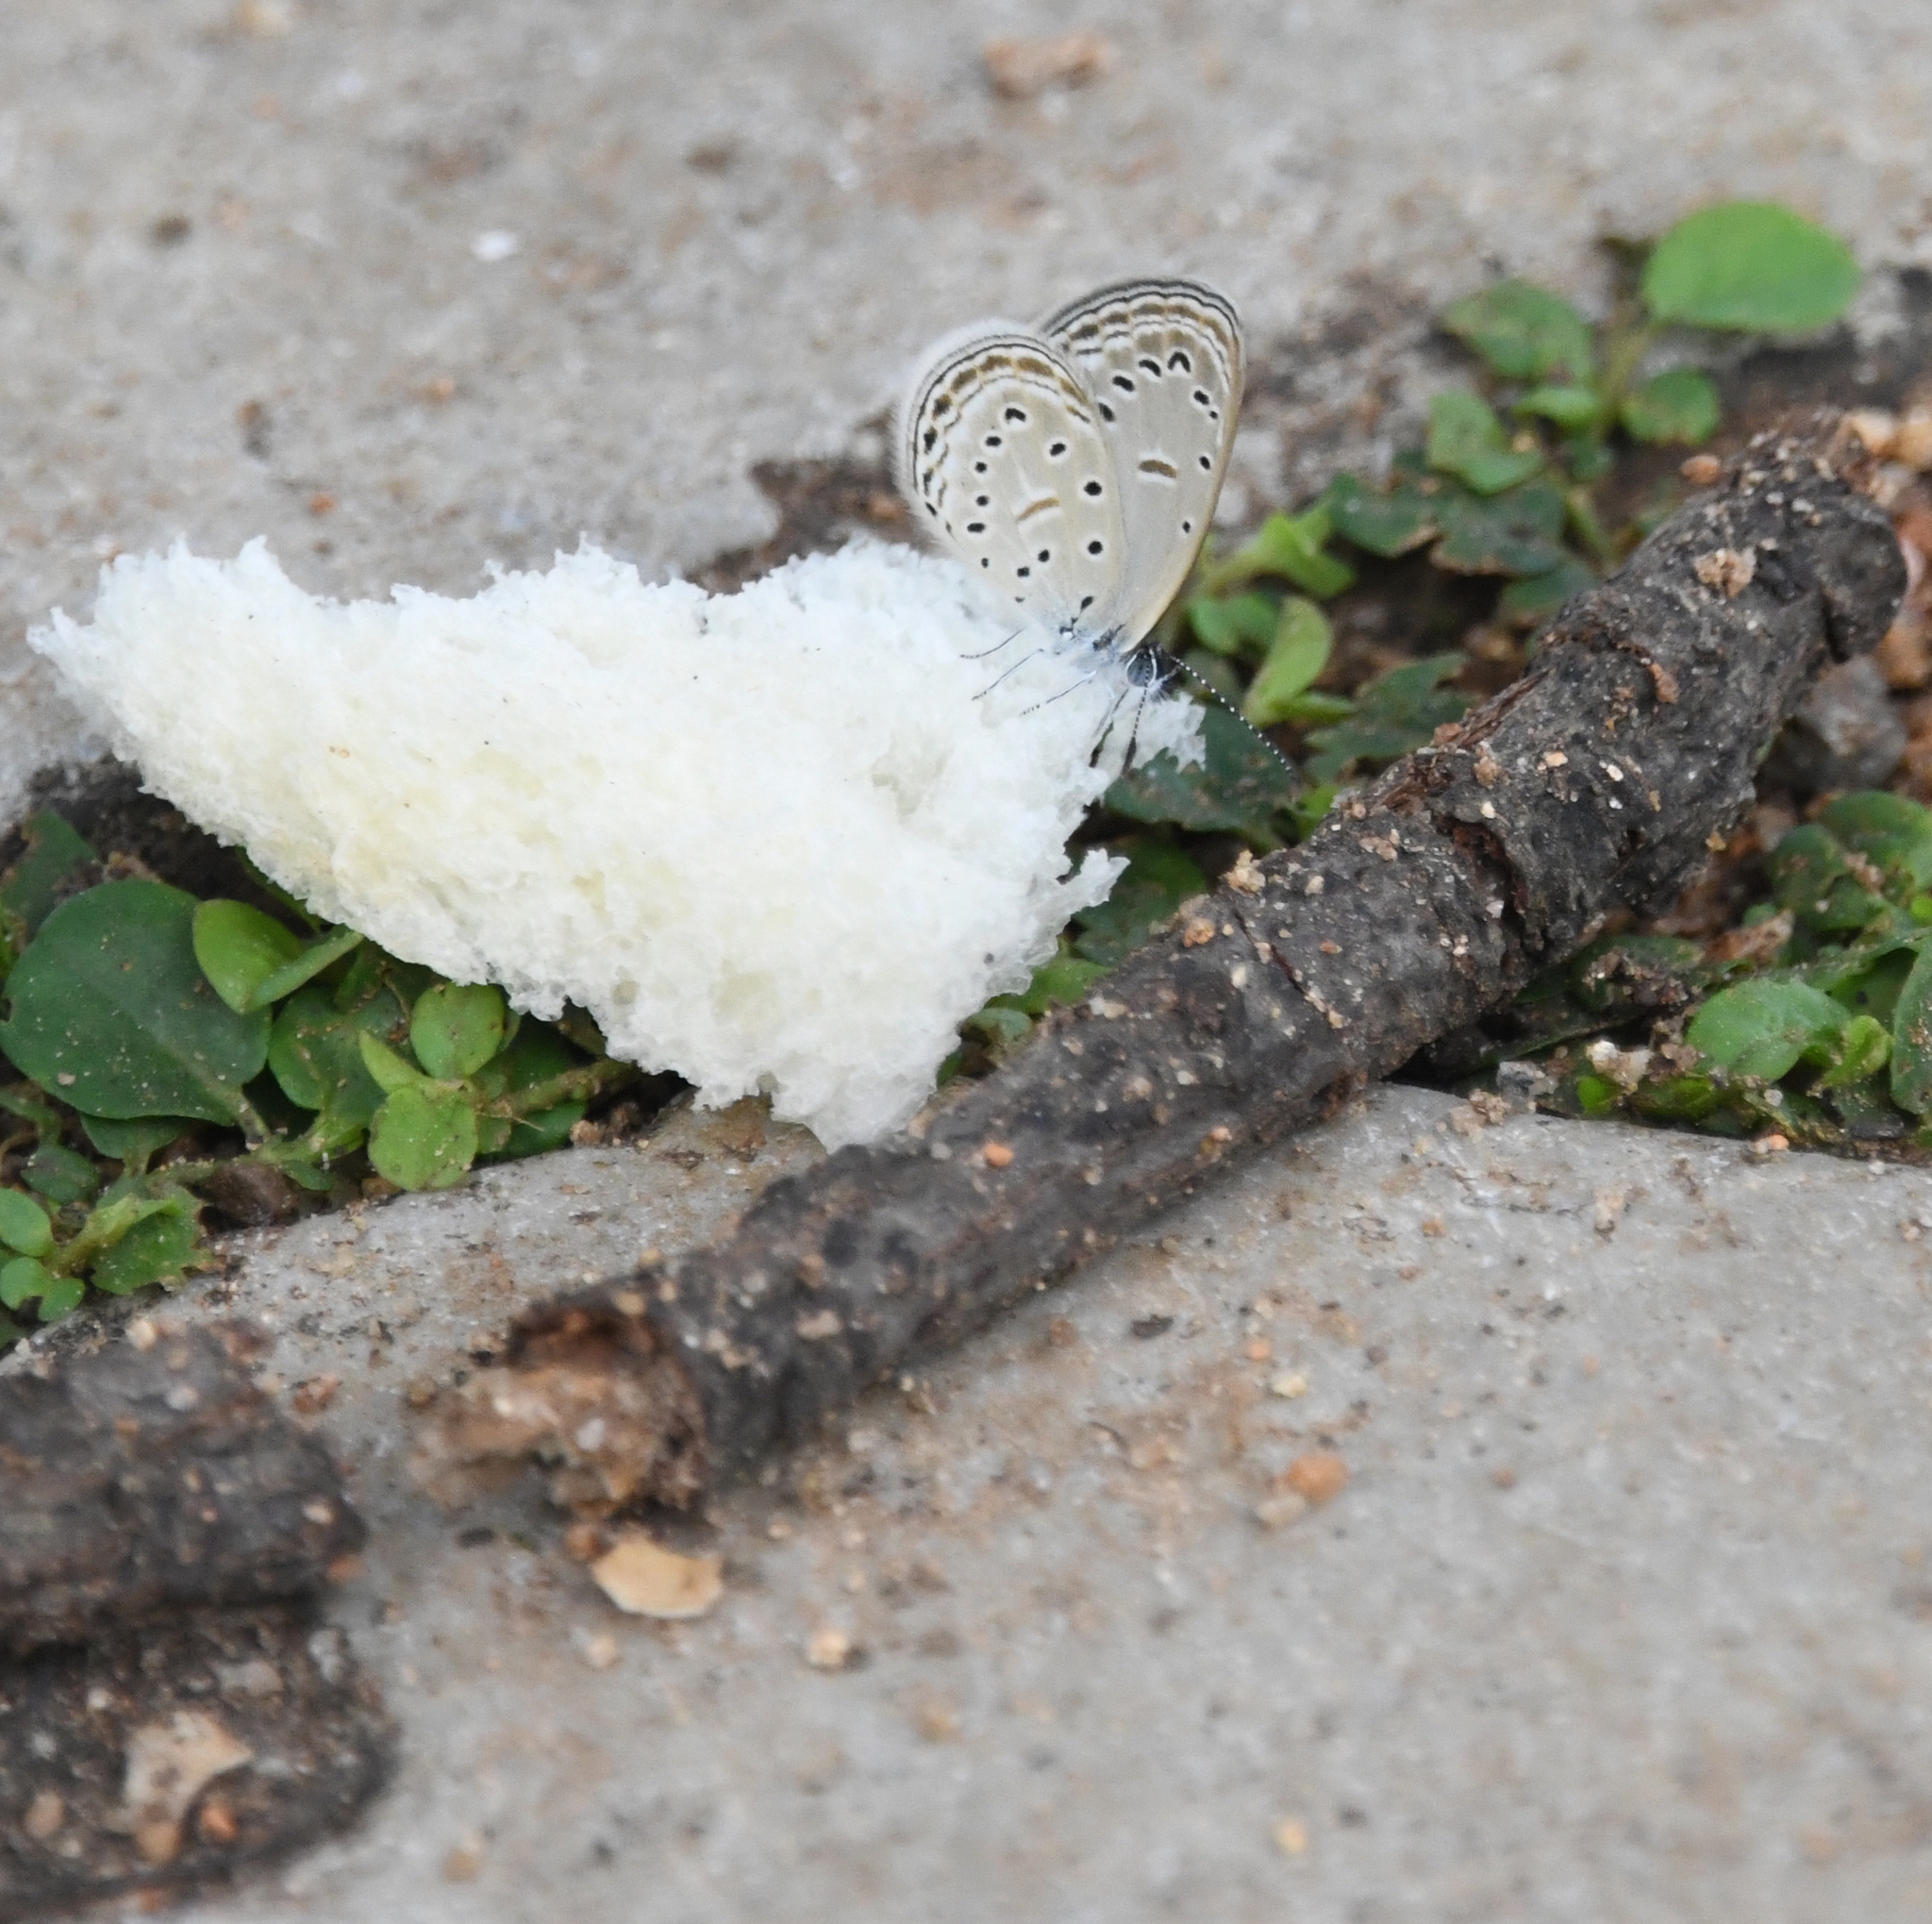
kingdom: Animalia
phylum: Arthropoda
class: Insecta
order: Lepidoptera
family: Lycaenidae
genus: Zizula
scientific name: Zizula hylax
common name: Gaika blue
